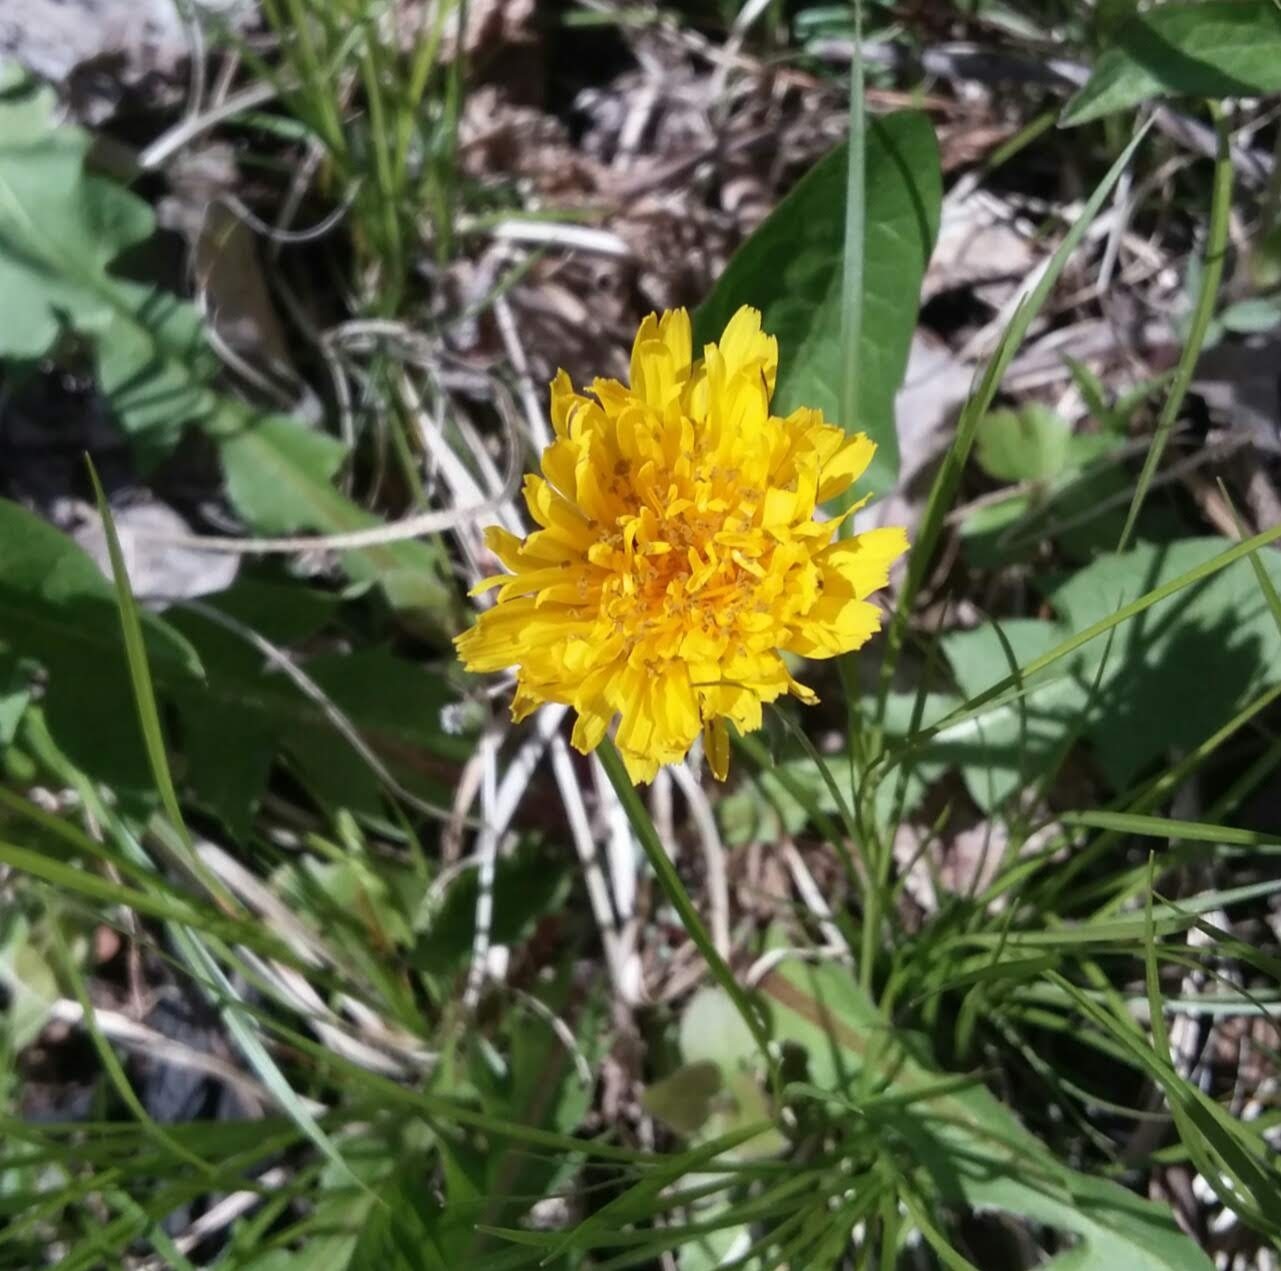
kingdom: Plantae
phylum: Tracheophyta
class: Magnoliopsida
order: Asterales
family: Asteraceae
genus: Taraxacum
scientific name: Taraxacum officinale
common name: Common dandelion
